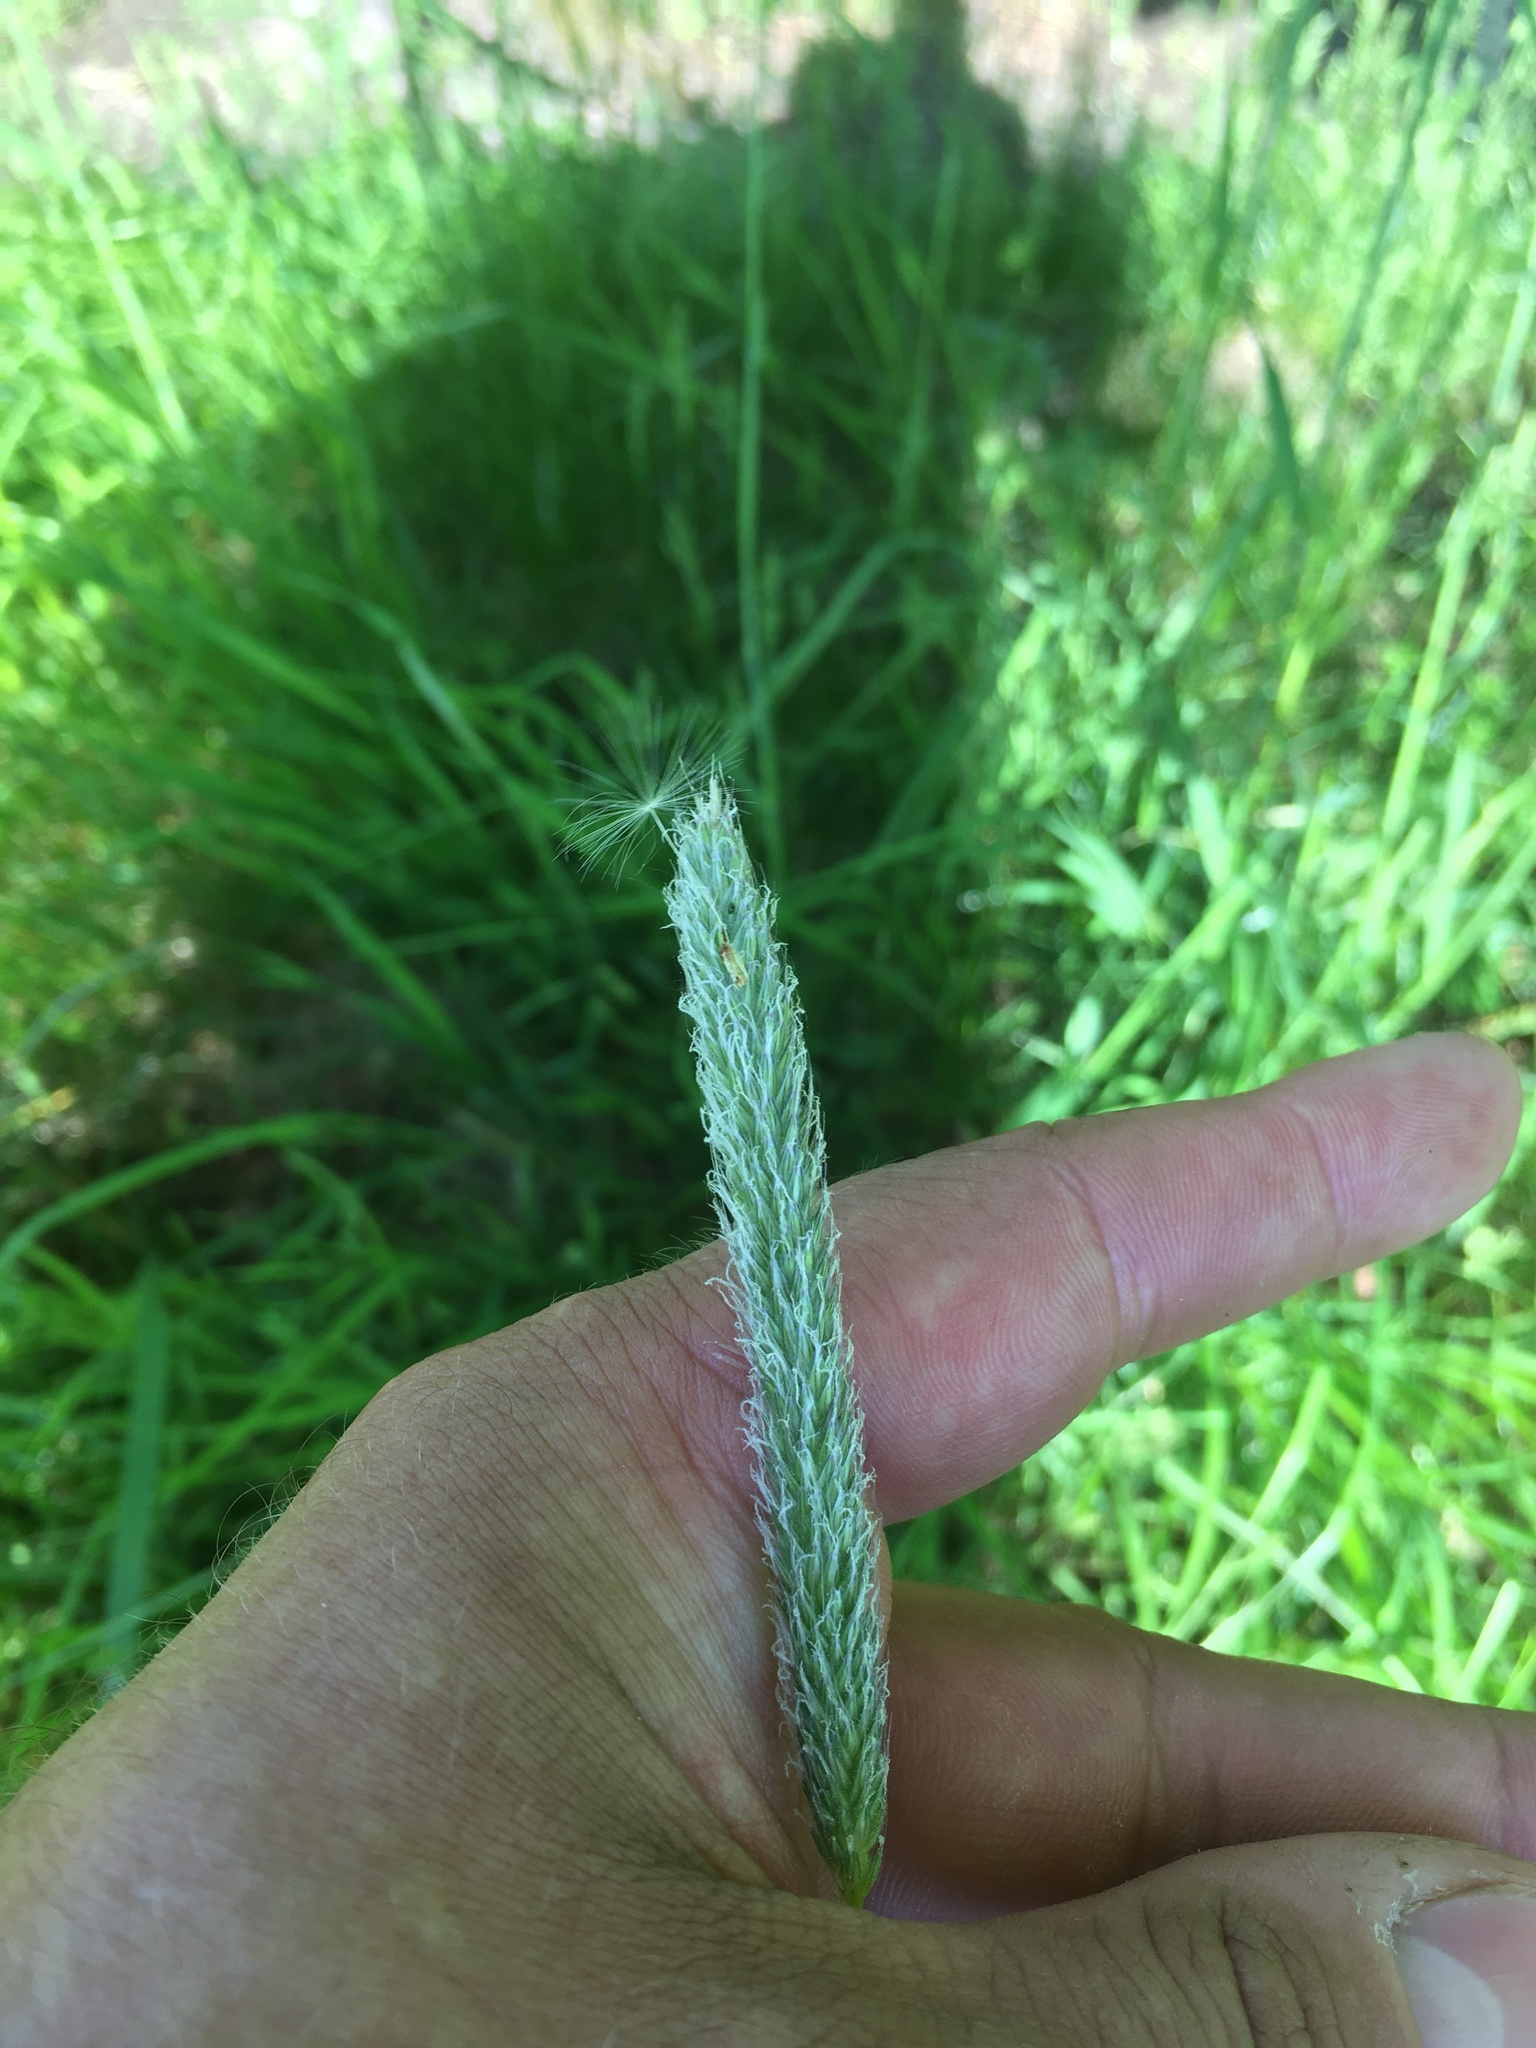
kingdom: Plantae
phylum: Tracheophyta
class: Liliopsida
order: Poales
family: Poaceae
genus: Alopecurus
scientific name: Alopecurus pratensis
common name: Meadow foxtail
